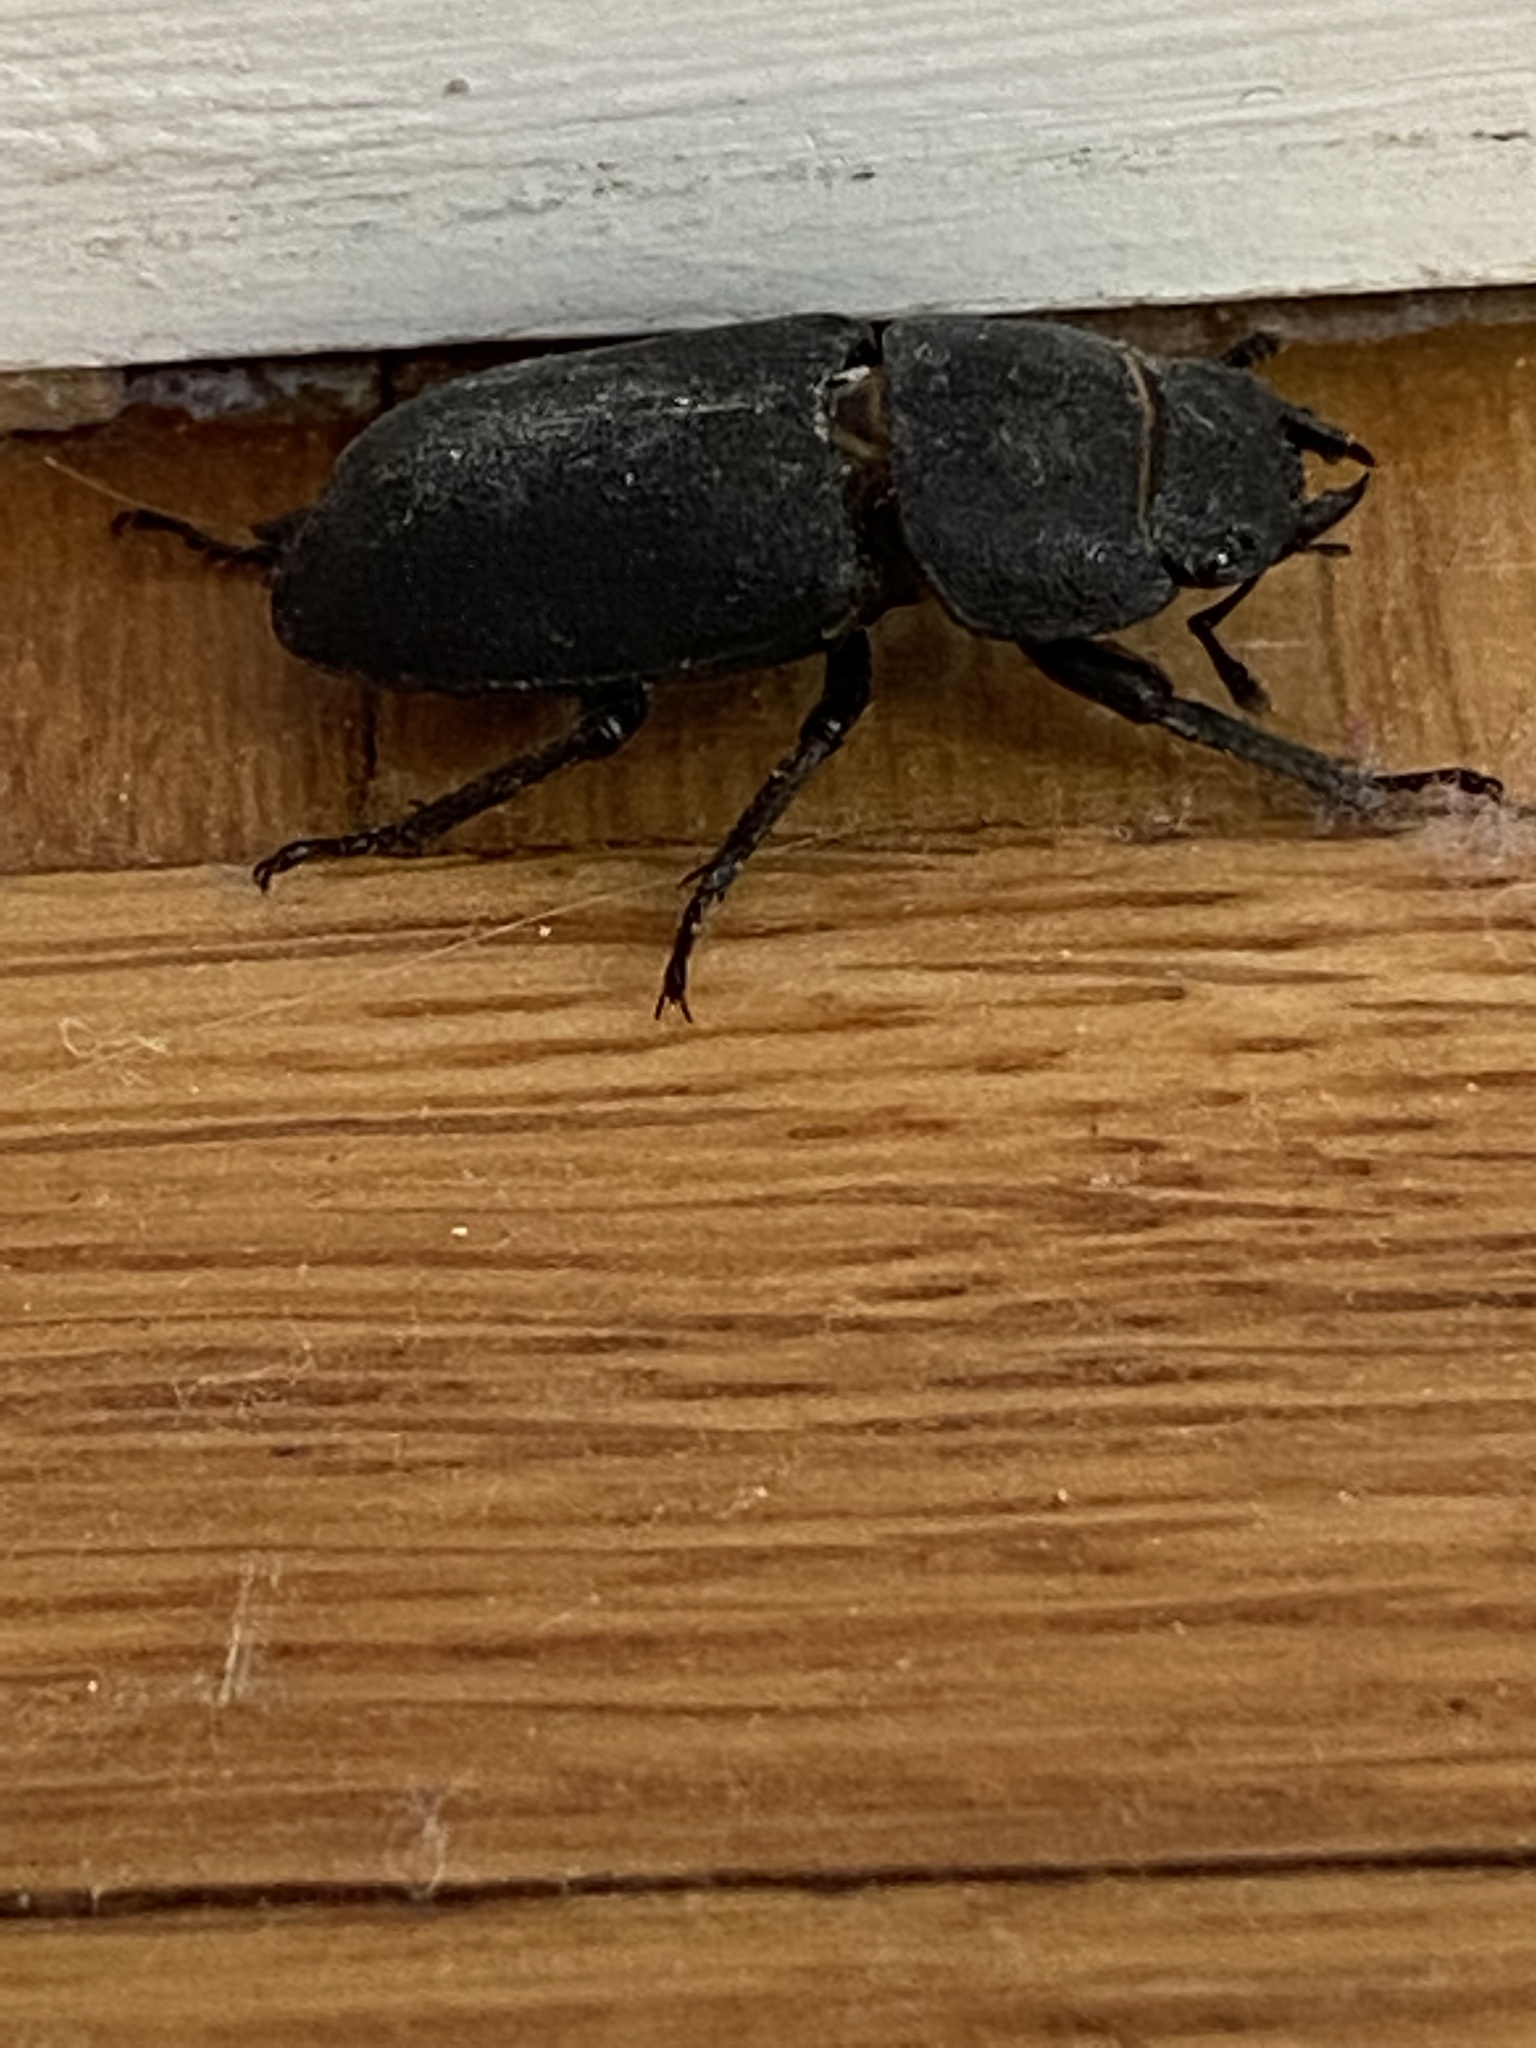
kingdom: Animalia
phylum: Arthropoda
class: Insecta
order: Coleoptera
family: Lucanidae
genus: Dorcus
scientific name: Dorcus parallelipipedus
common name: Lesser stag beetle
